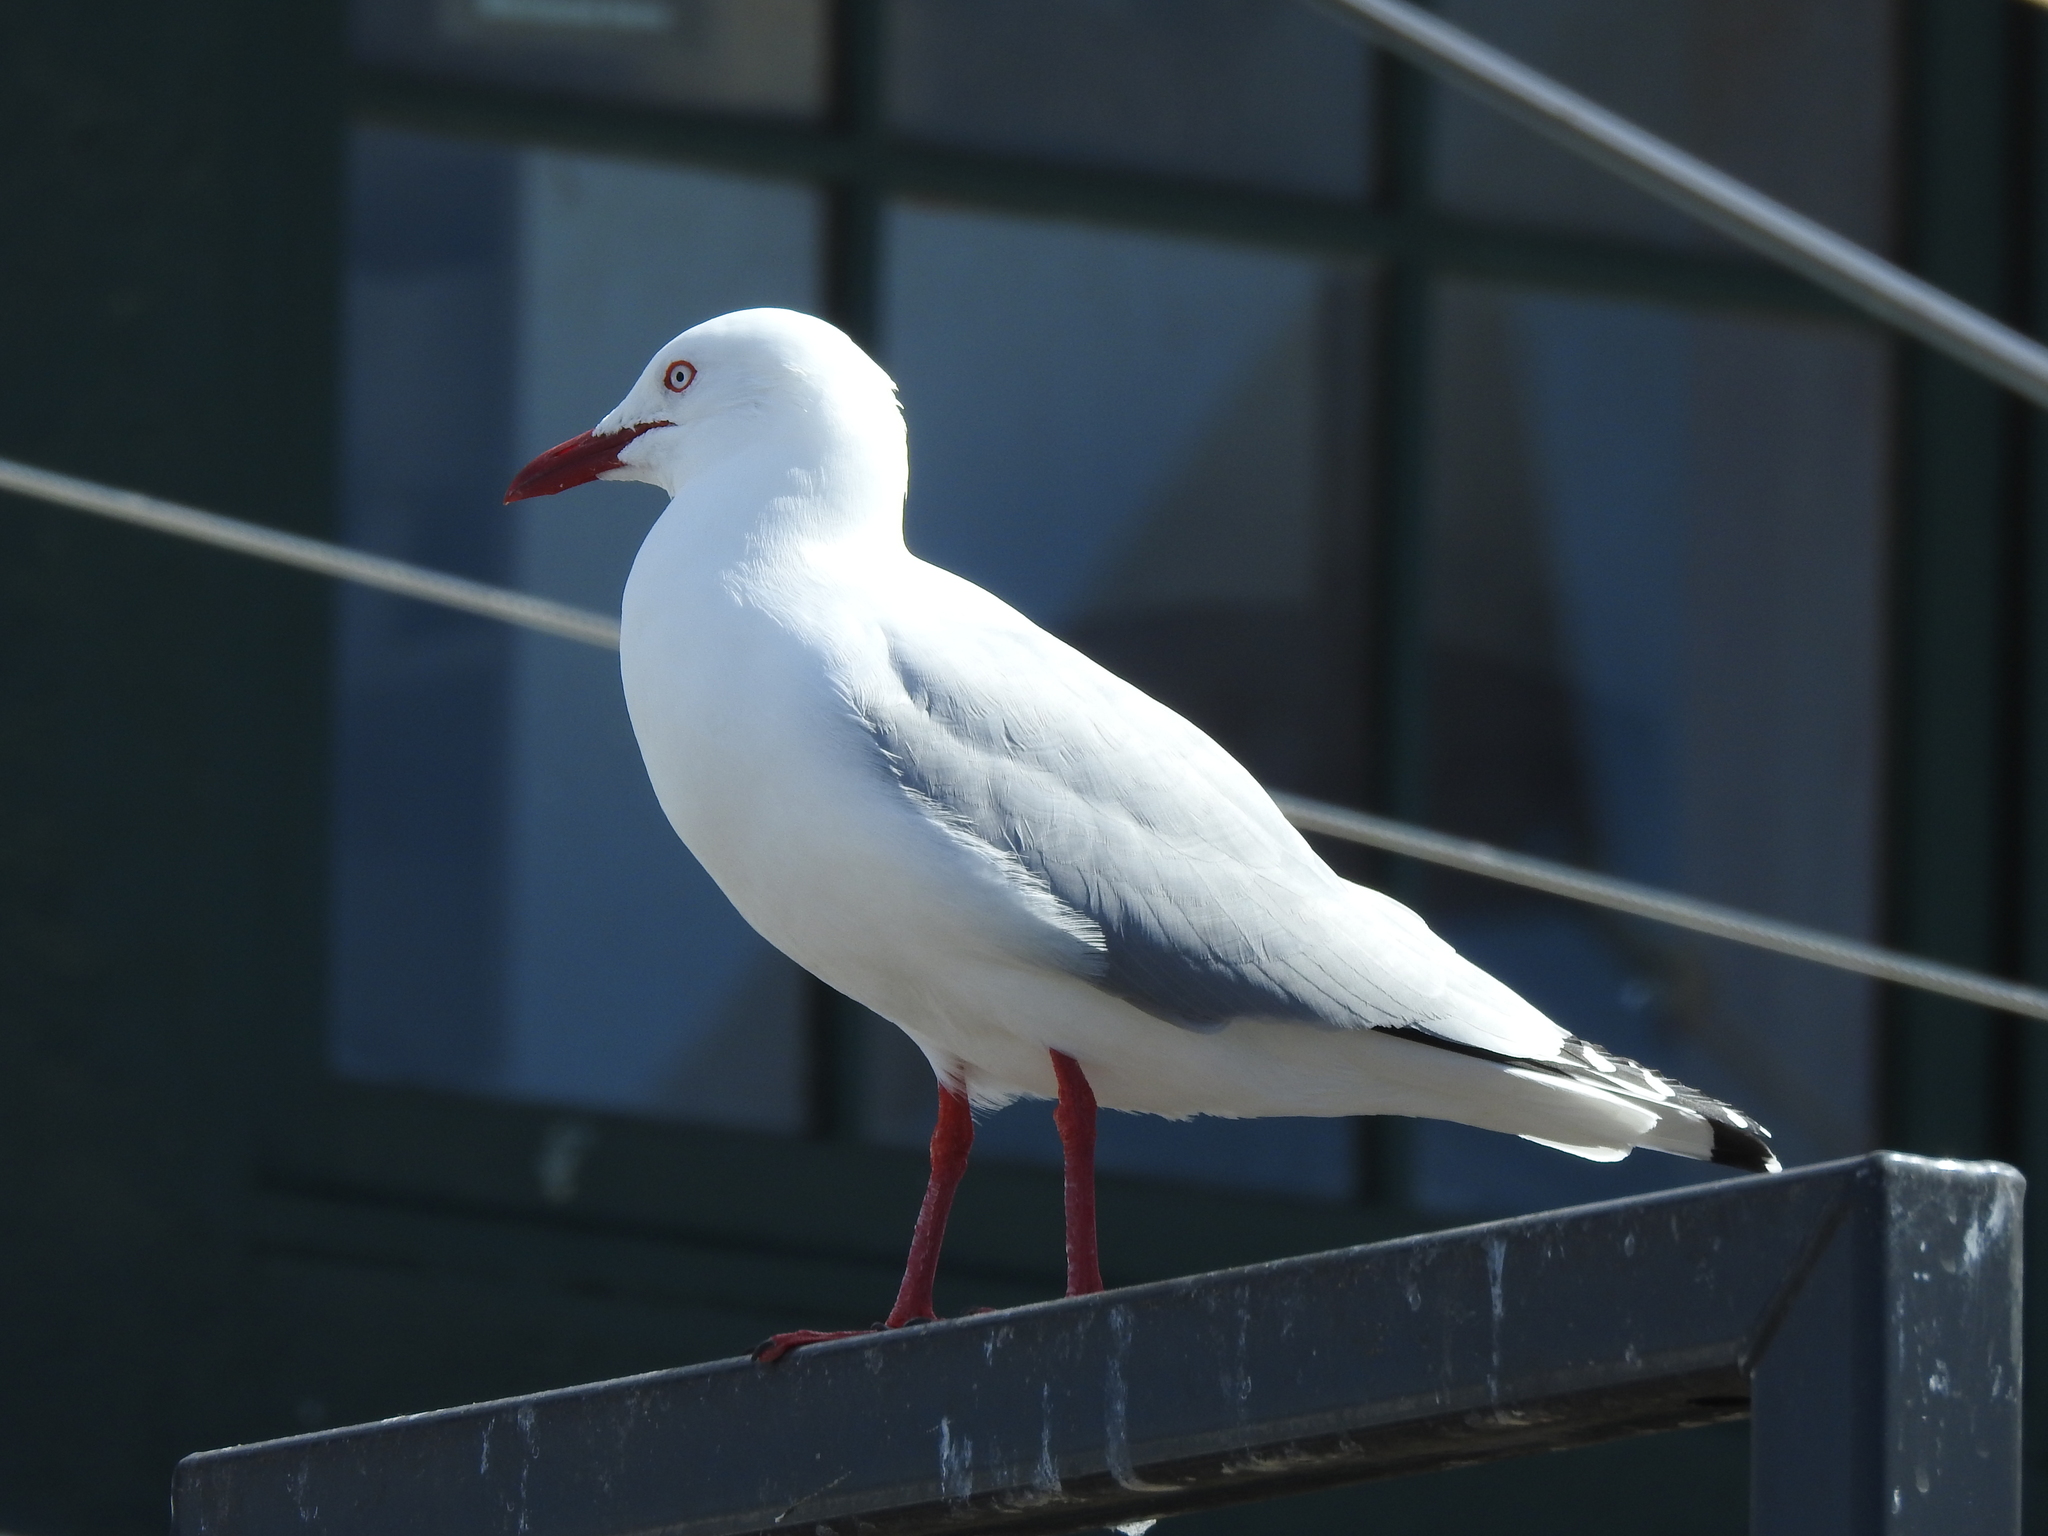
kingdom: Animalia
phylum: Chordata
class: Aves
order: Charadriiformes
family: Laridae
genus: Chroicocephalus
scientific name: Chroicocephalus novaehollandiae
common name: Silver gull
